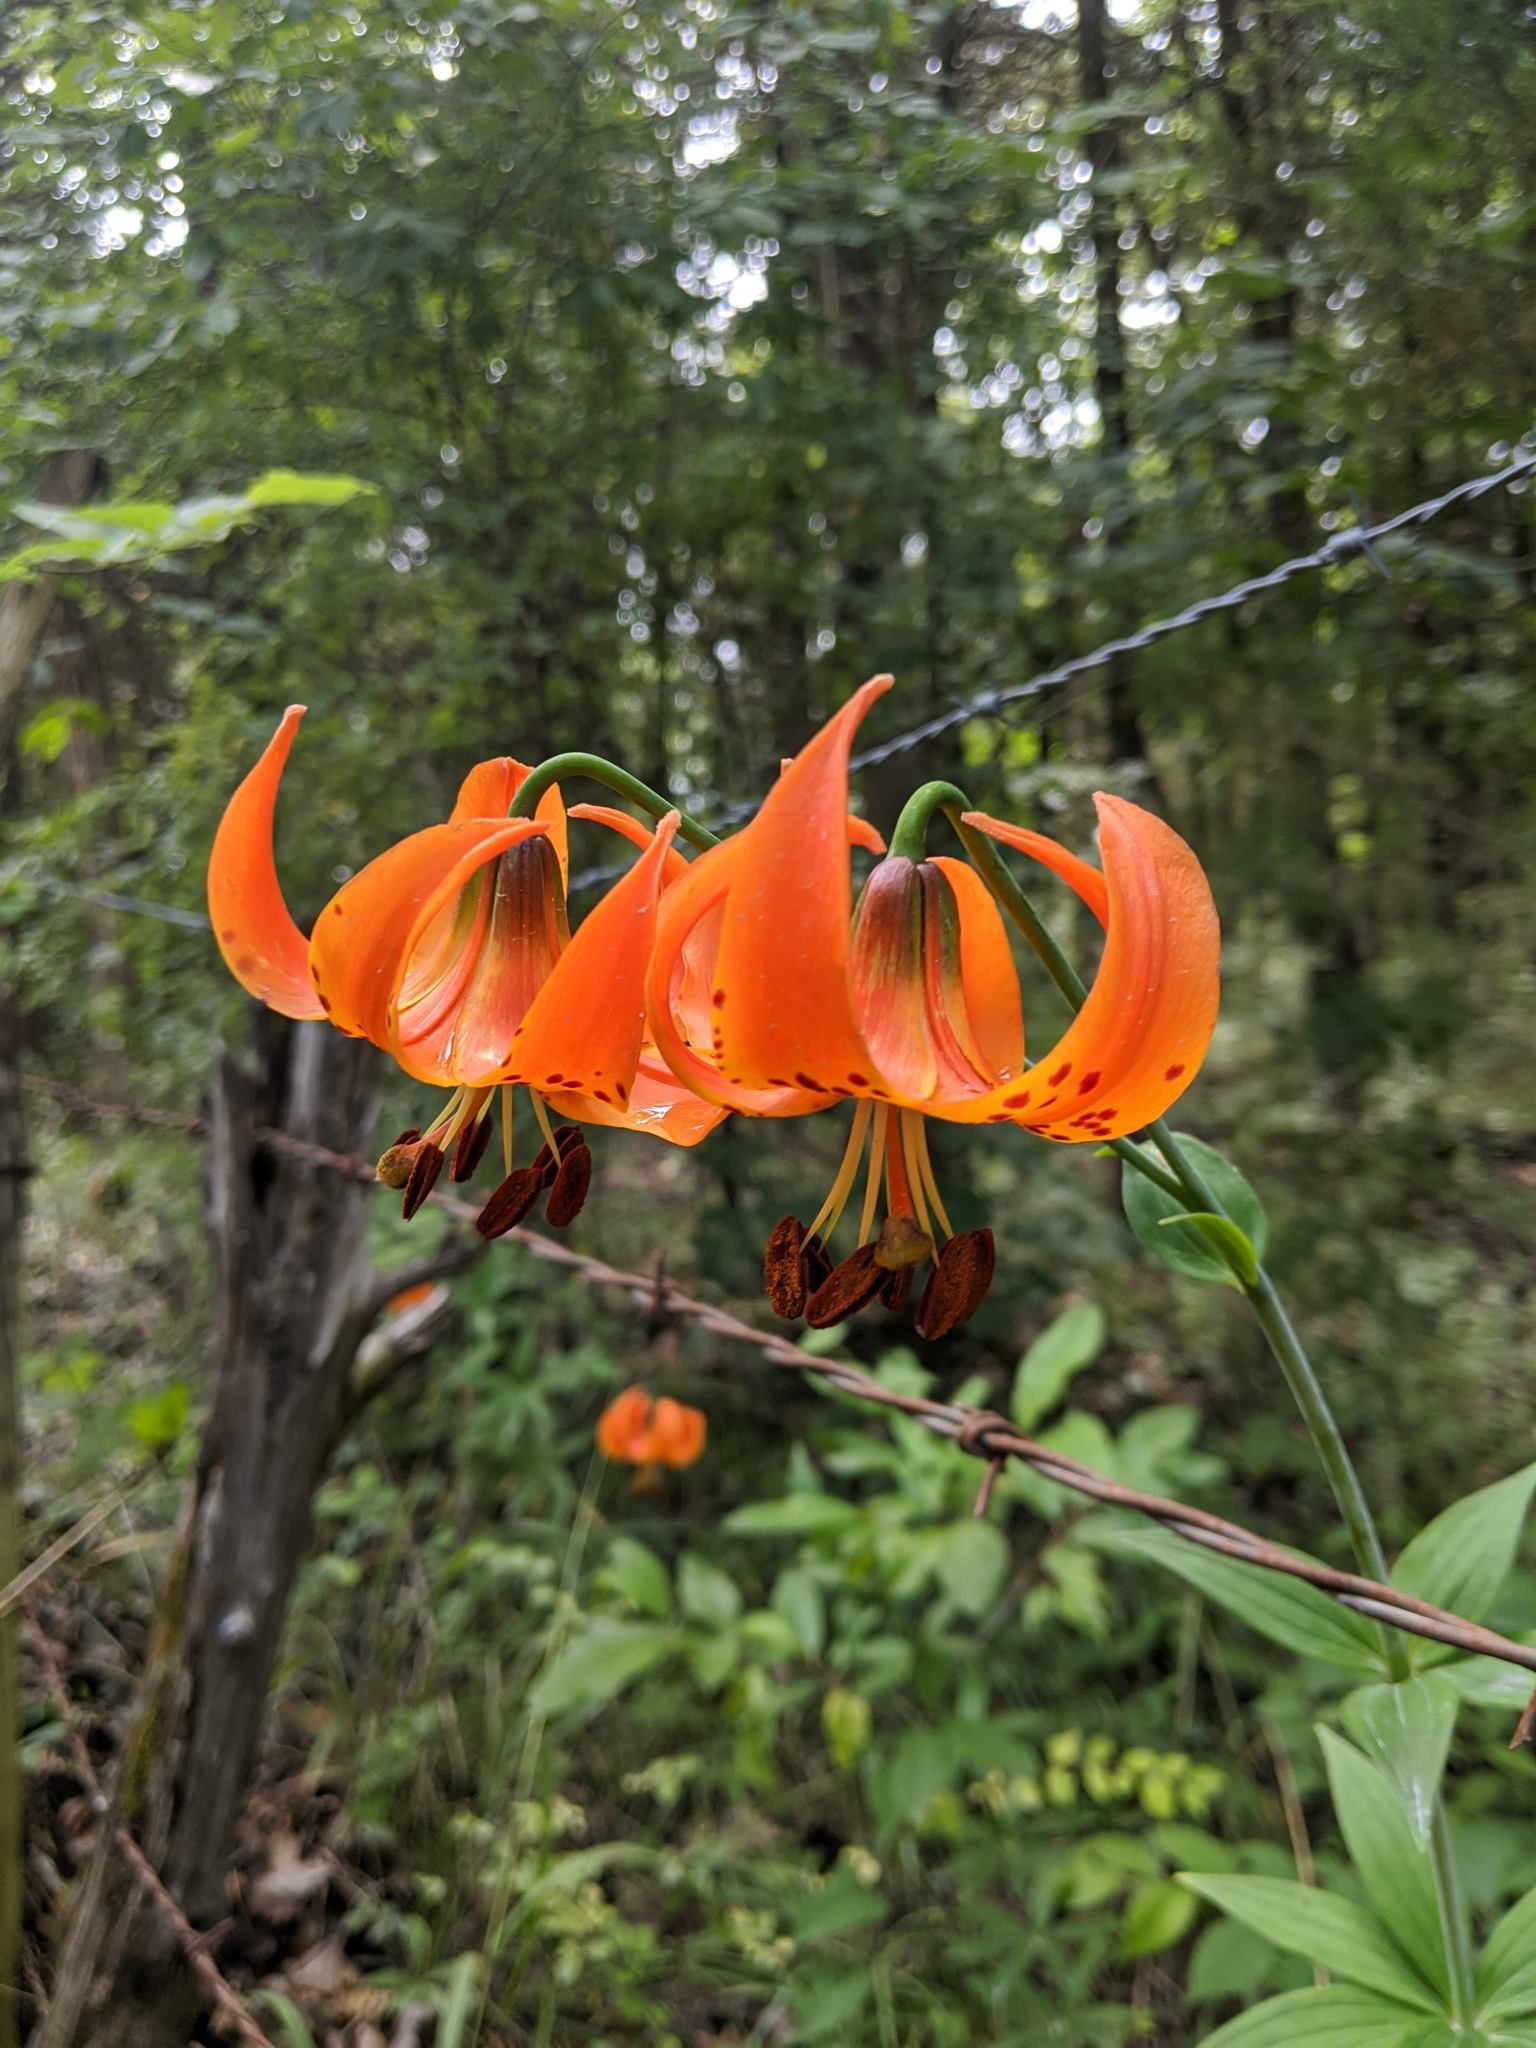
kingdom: Plantae
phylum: Tracheophyta
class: Liliopsida
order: Liliales
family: Liliaceae
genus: Lilium
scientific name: Lilium michiganense
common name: Michigan lily
